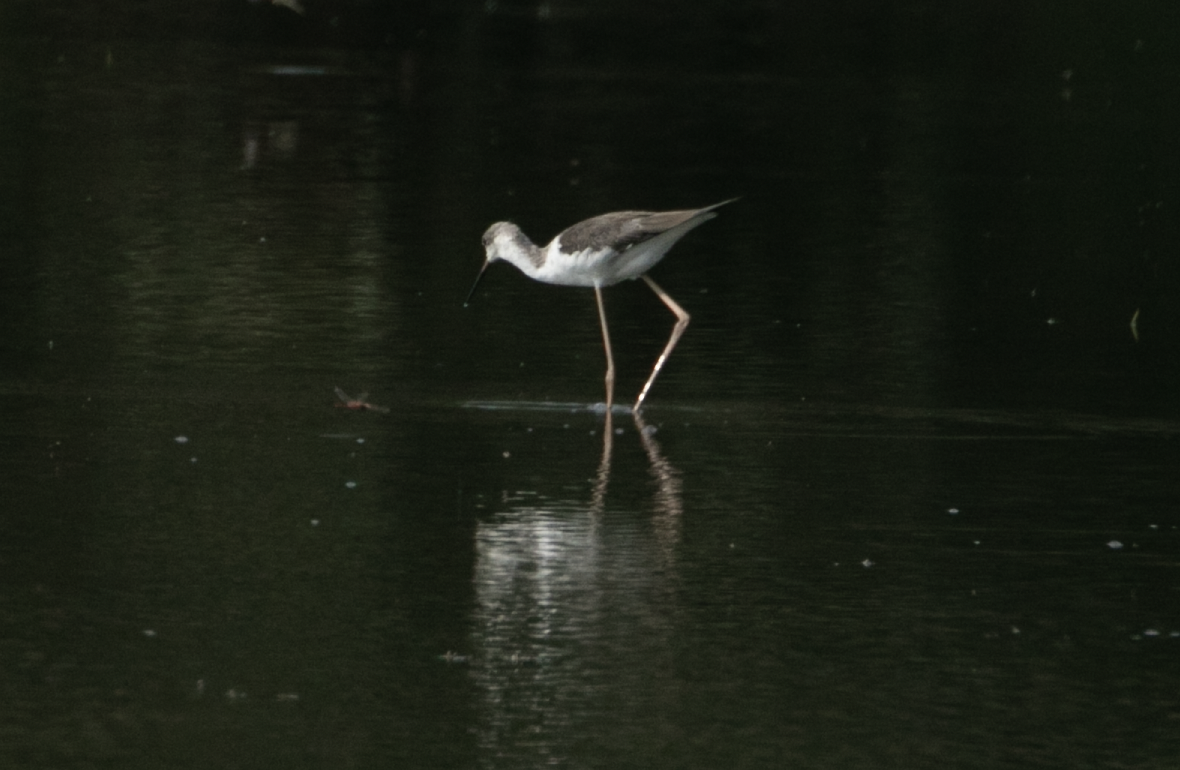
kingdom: Animalia
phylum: Chordata
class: Aves
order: Charadriiformes
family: Recurvirostridae
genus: Himantopus
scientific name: Himantopus himantopus
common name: Black-winged stilt
